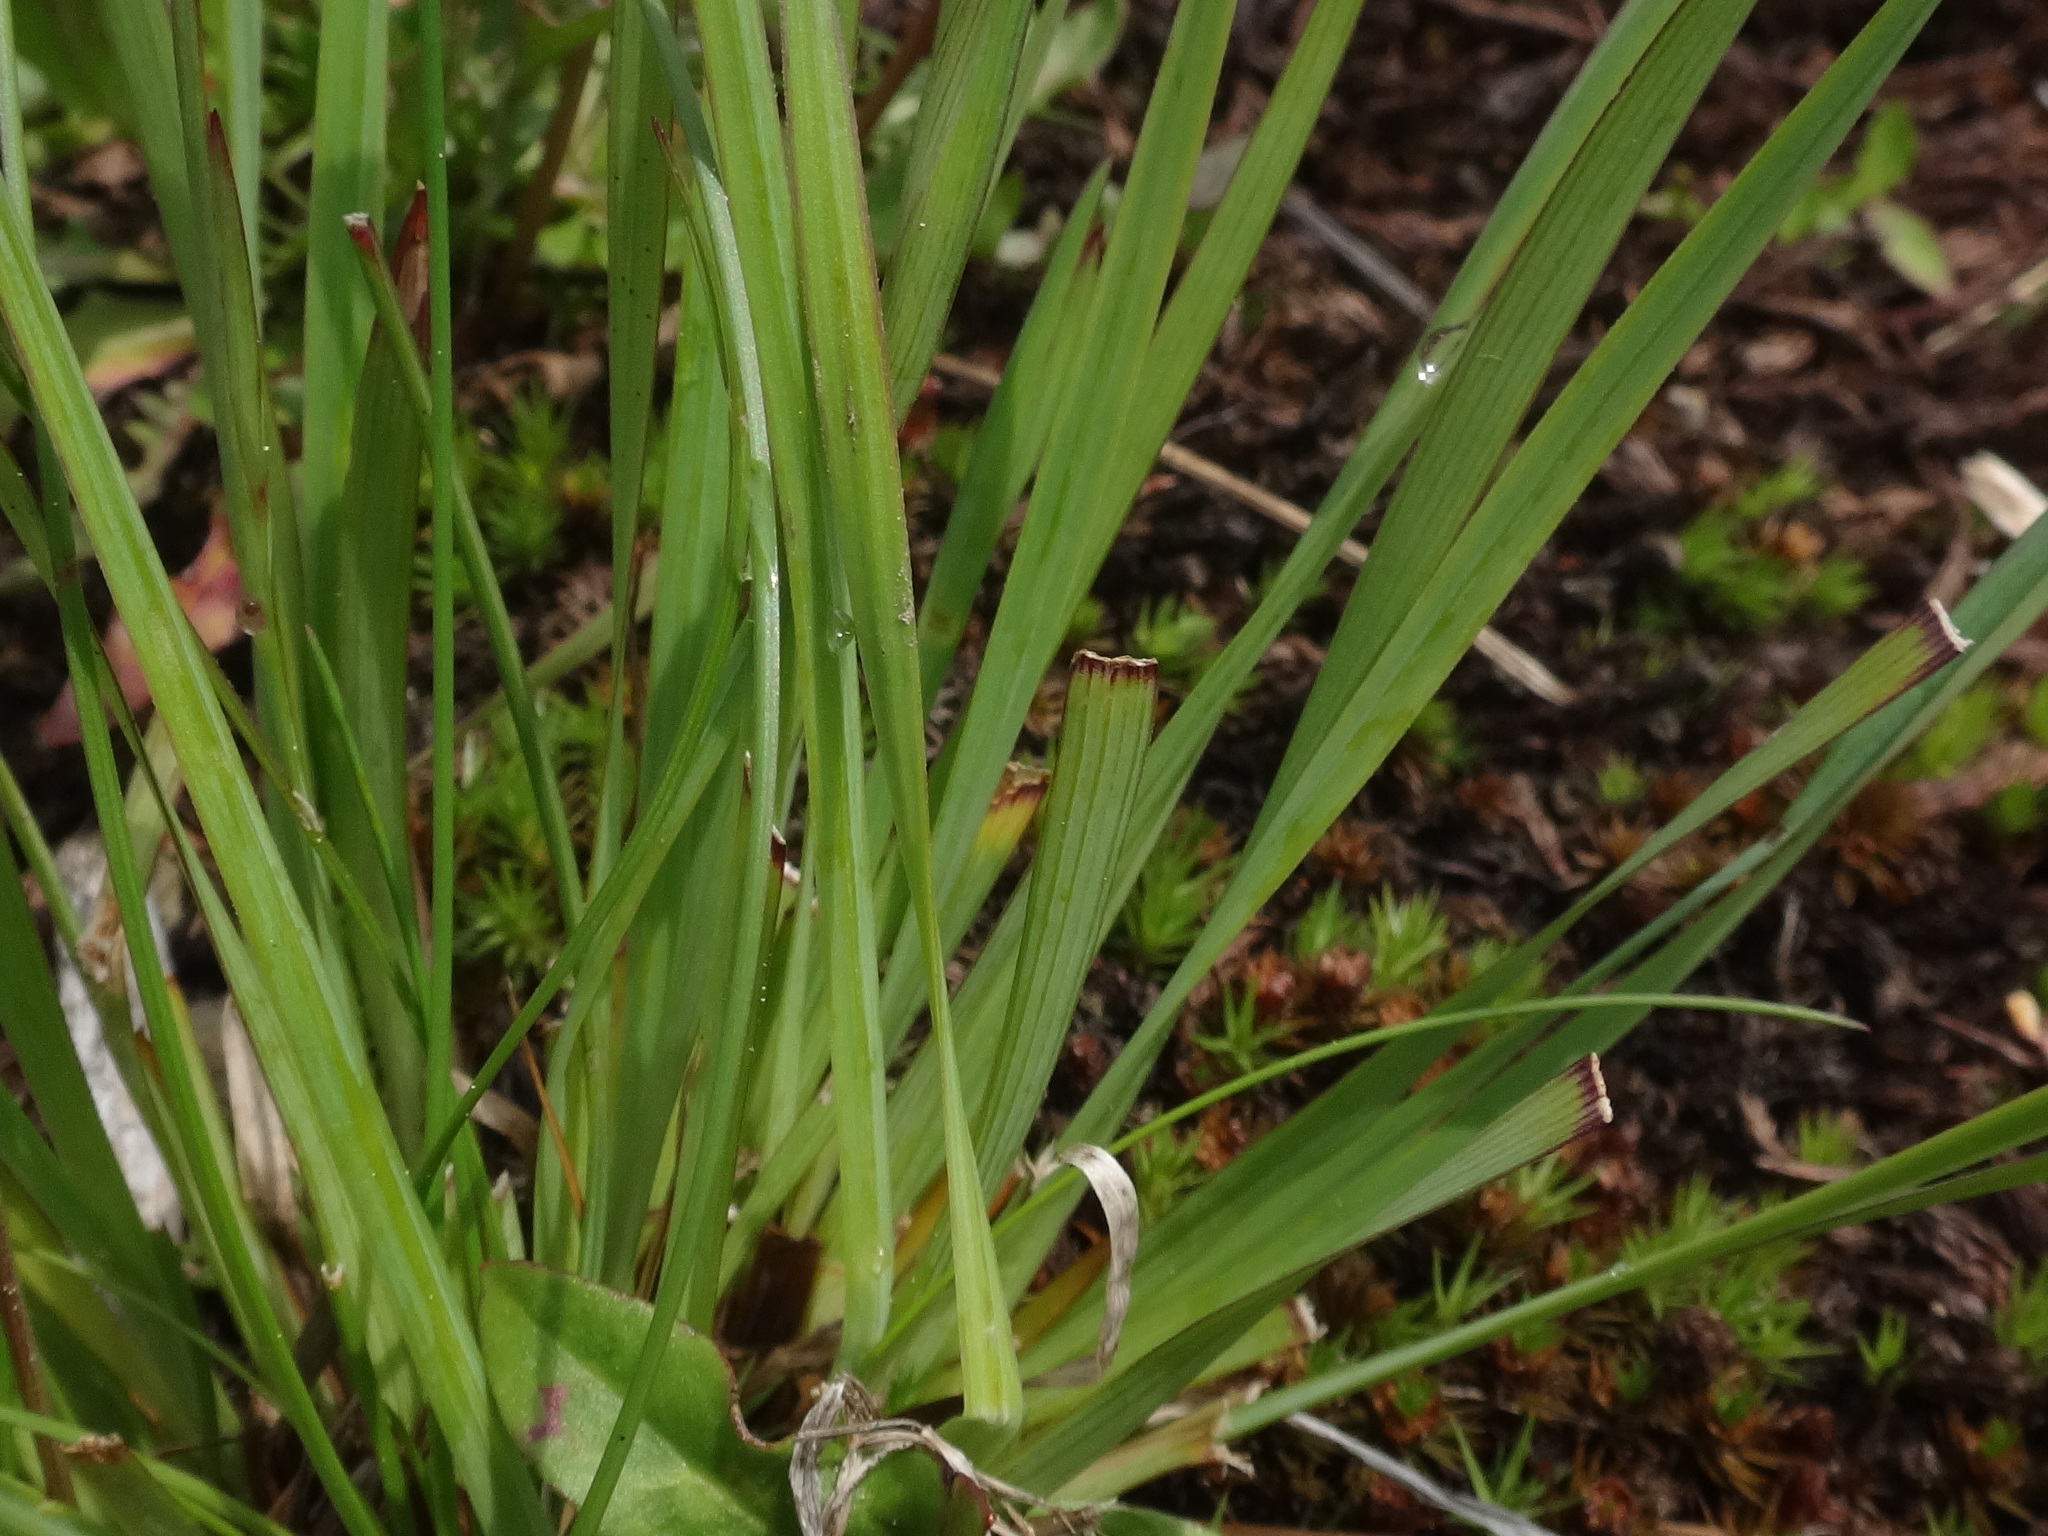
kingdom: Plantae
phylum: Tracheophyta
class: Liliopsida
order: Asparagales
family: Iridaceae
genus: Sisyrinchium
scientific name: Sisyrinchium montanum
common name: American blue-eyed-grass
